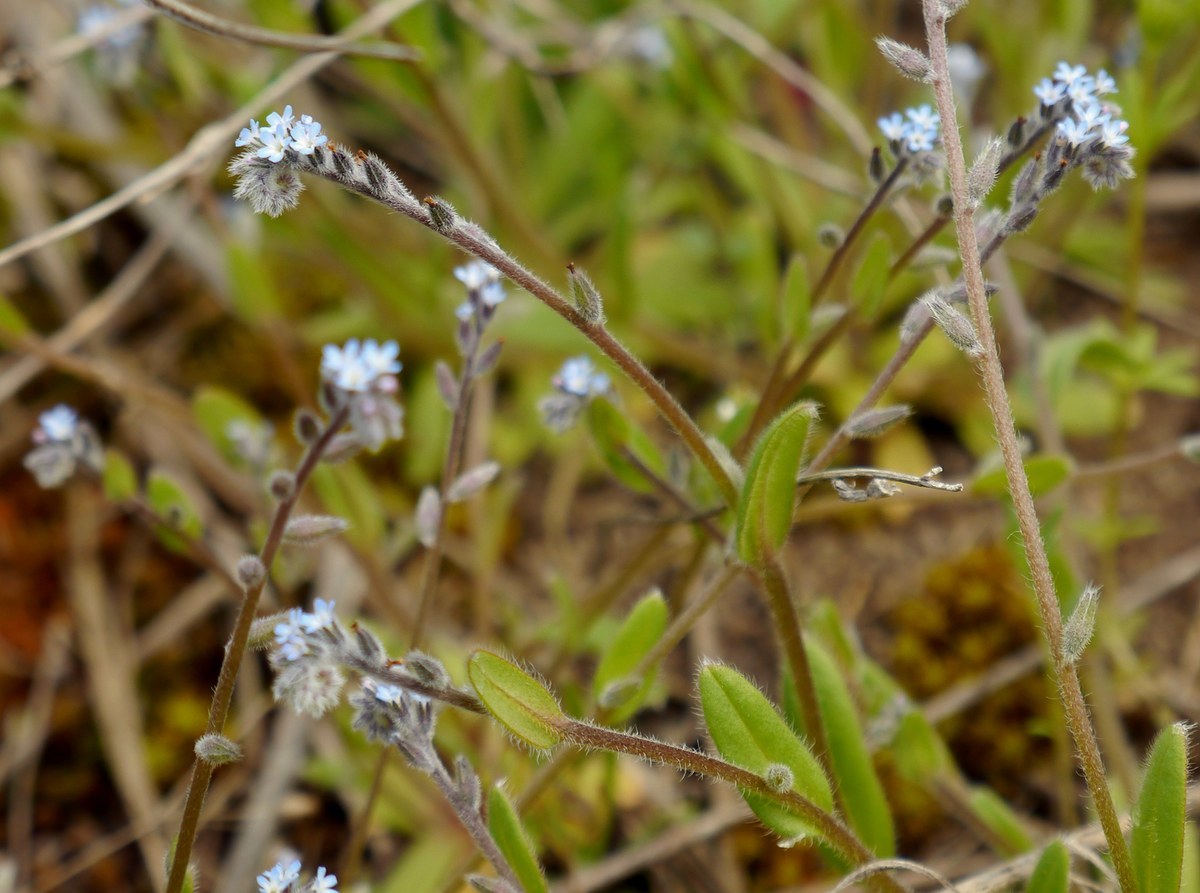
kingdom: Plantae
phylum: Tracheophyta
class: Magnoliopsida
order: Boraginales
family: Boraginaceae
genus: Myosotis
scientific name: Myosotis stricta
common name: Strict forget-me-not
